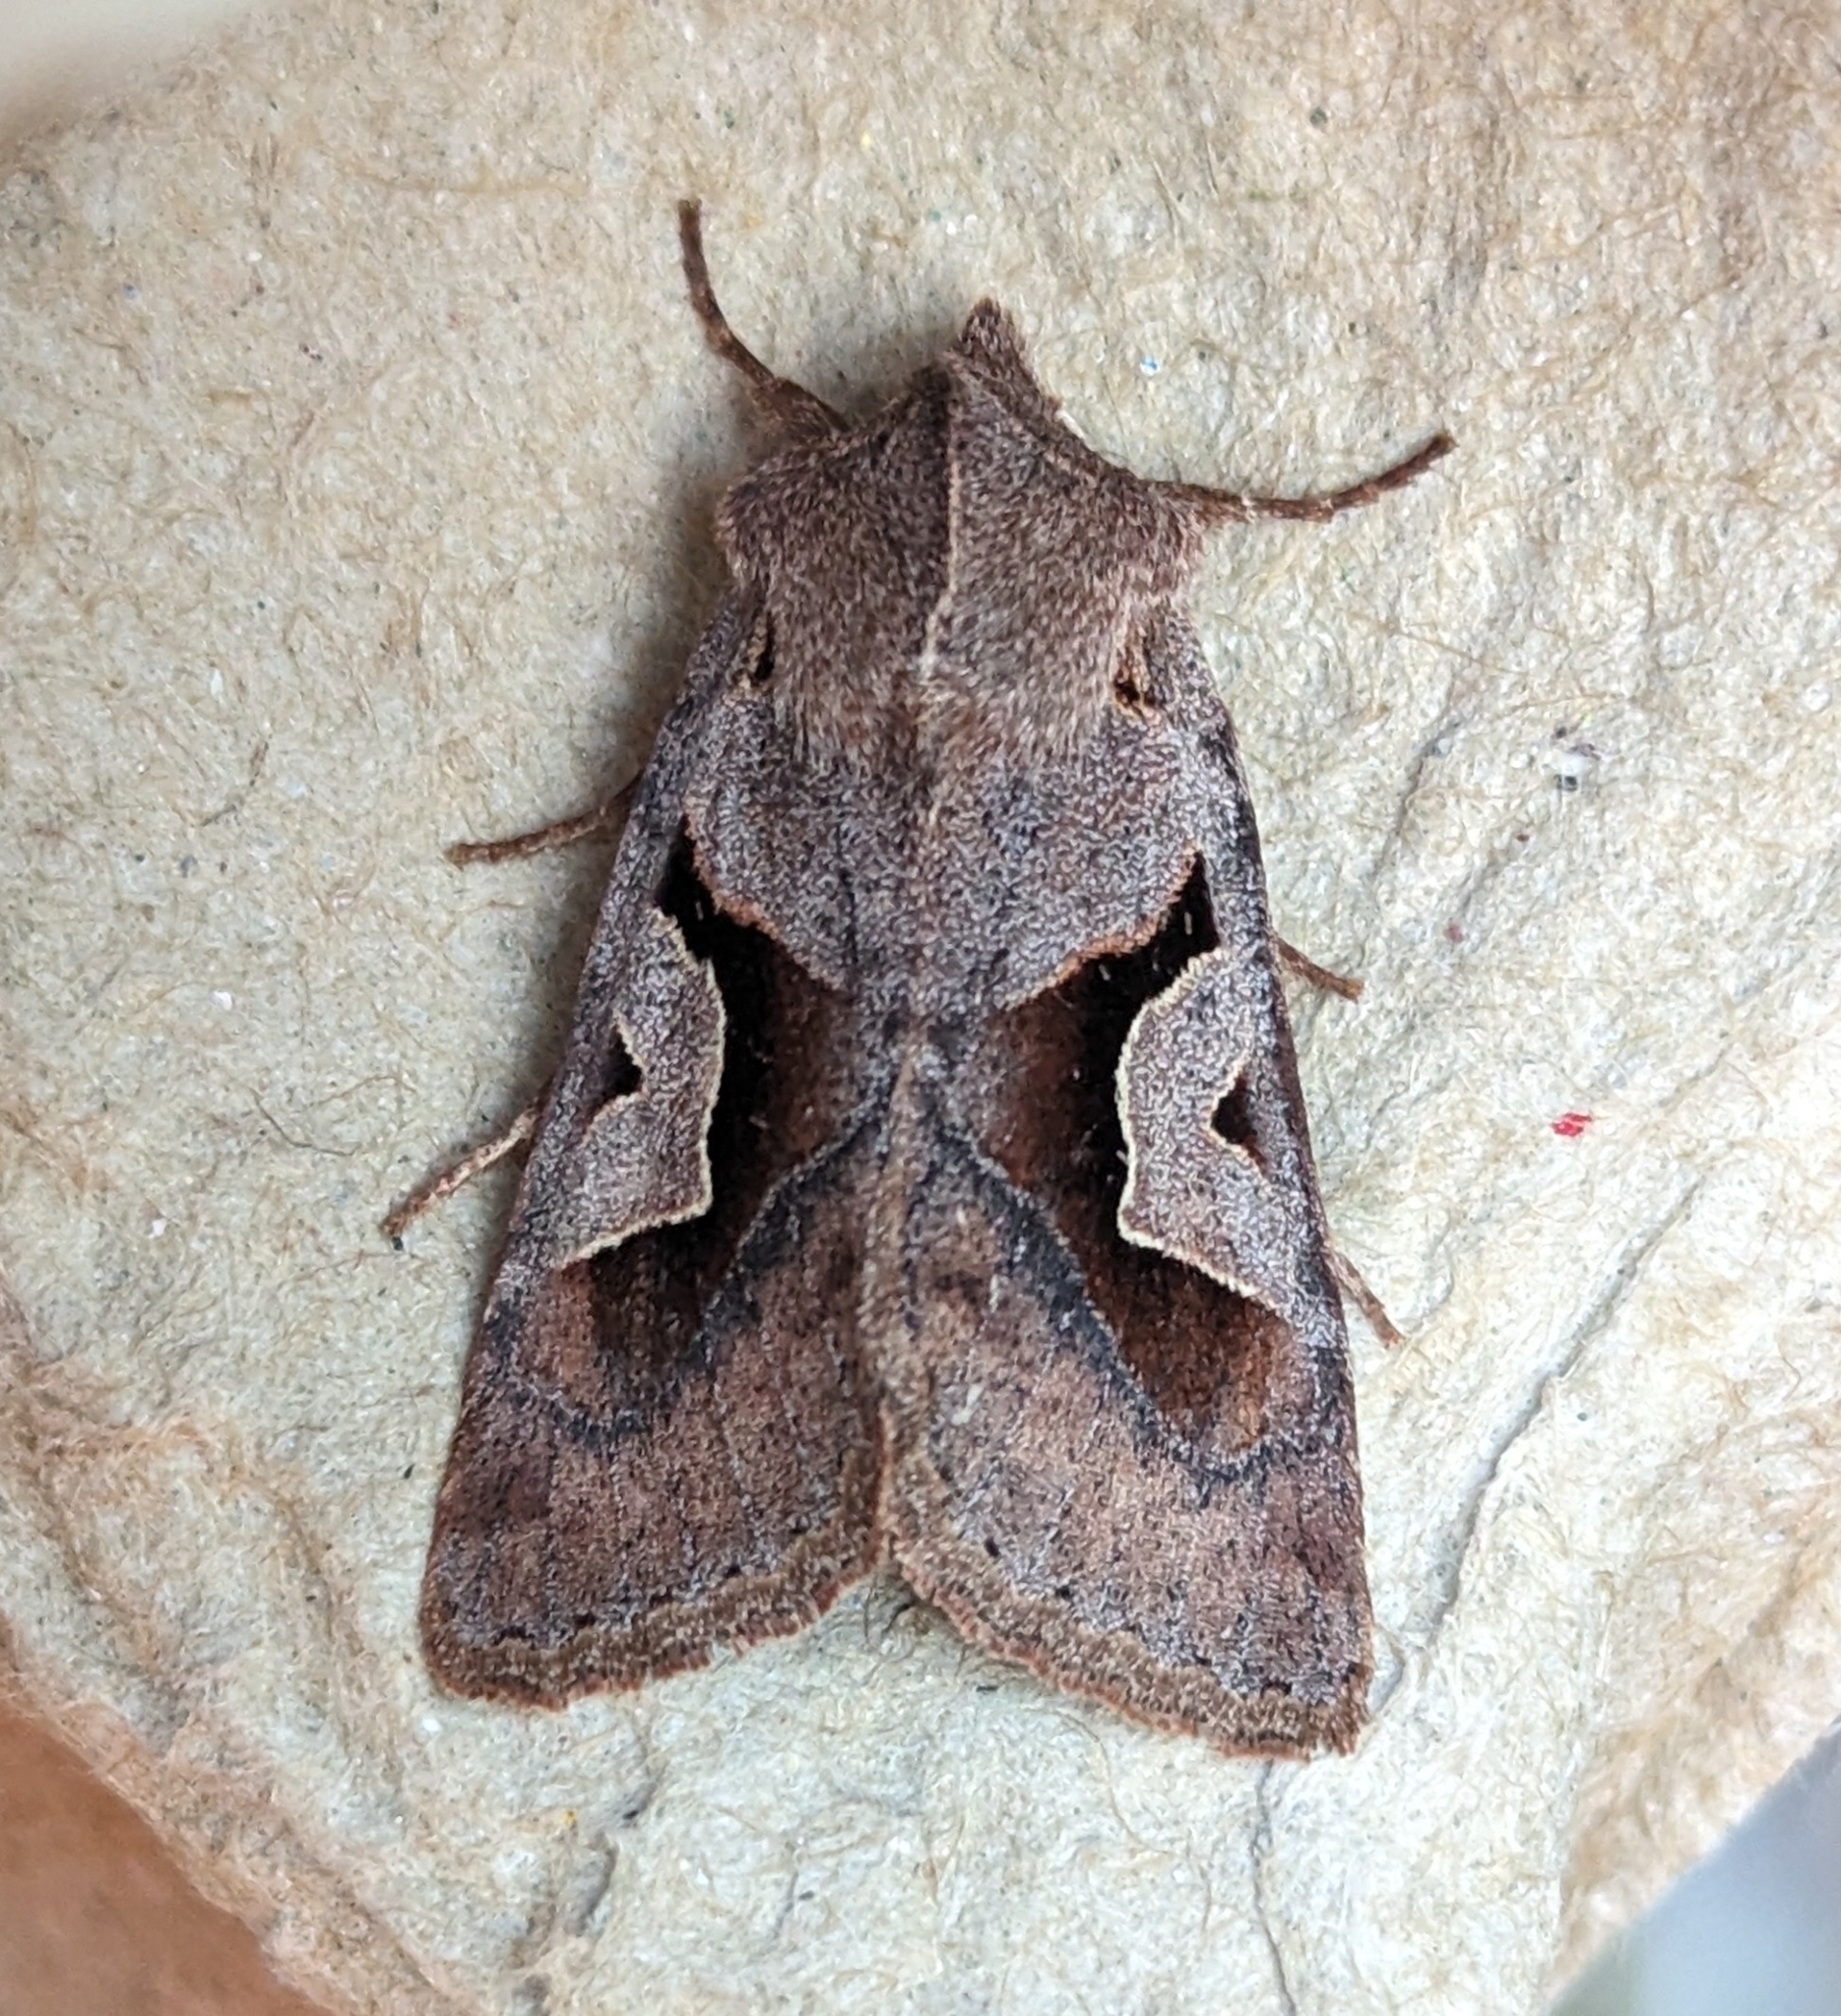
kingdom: Animalia
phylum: Arthropoda
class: Insecta
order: Lepidoptera
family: Noctuidae
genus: Acerra
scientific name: Acerra normalis
